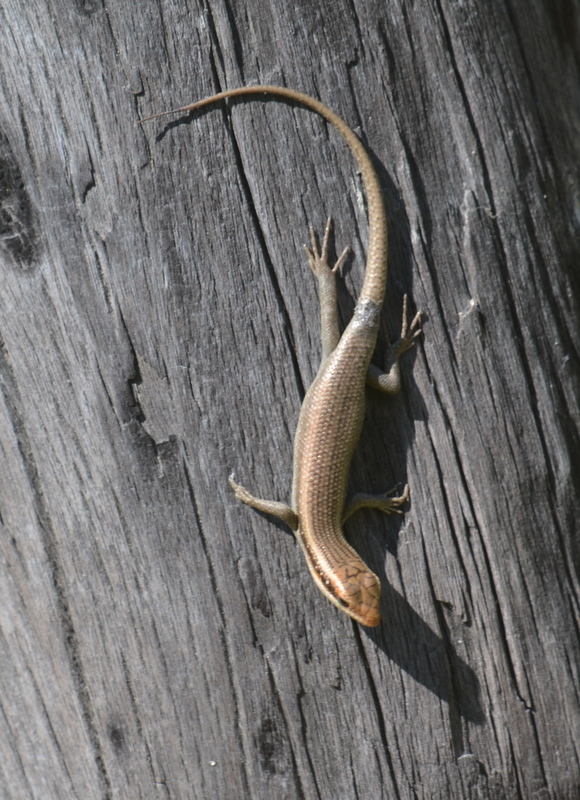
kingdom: Animalia
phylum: Chordata
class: Squamata
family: Scincidae
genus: Trachylepis
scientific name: Trachylepis wahlbergii
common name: Wahlberg’s striped skink
